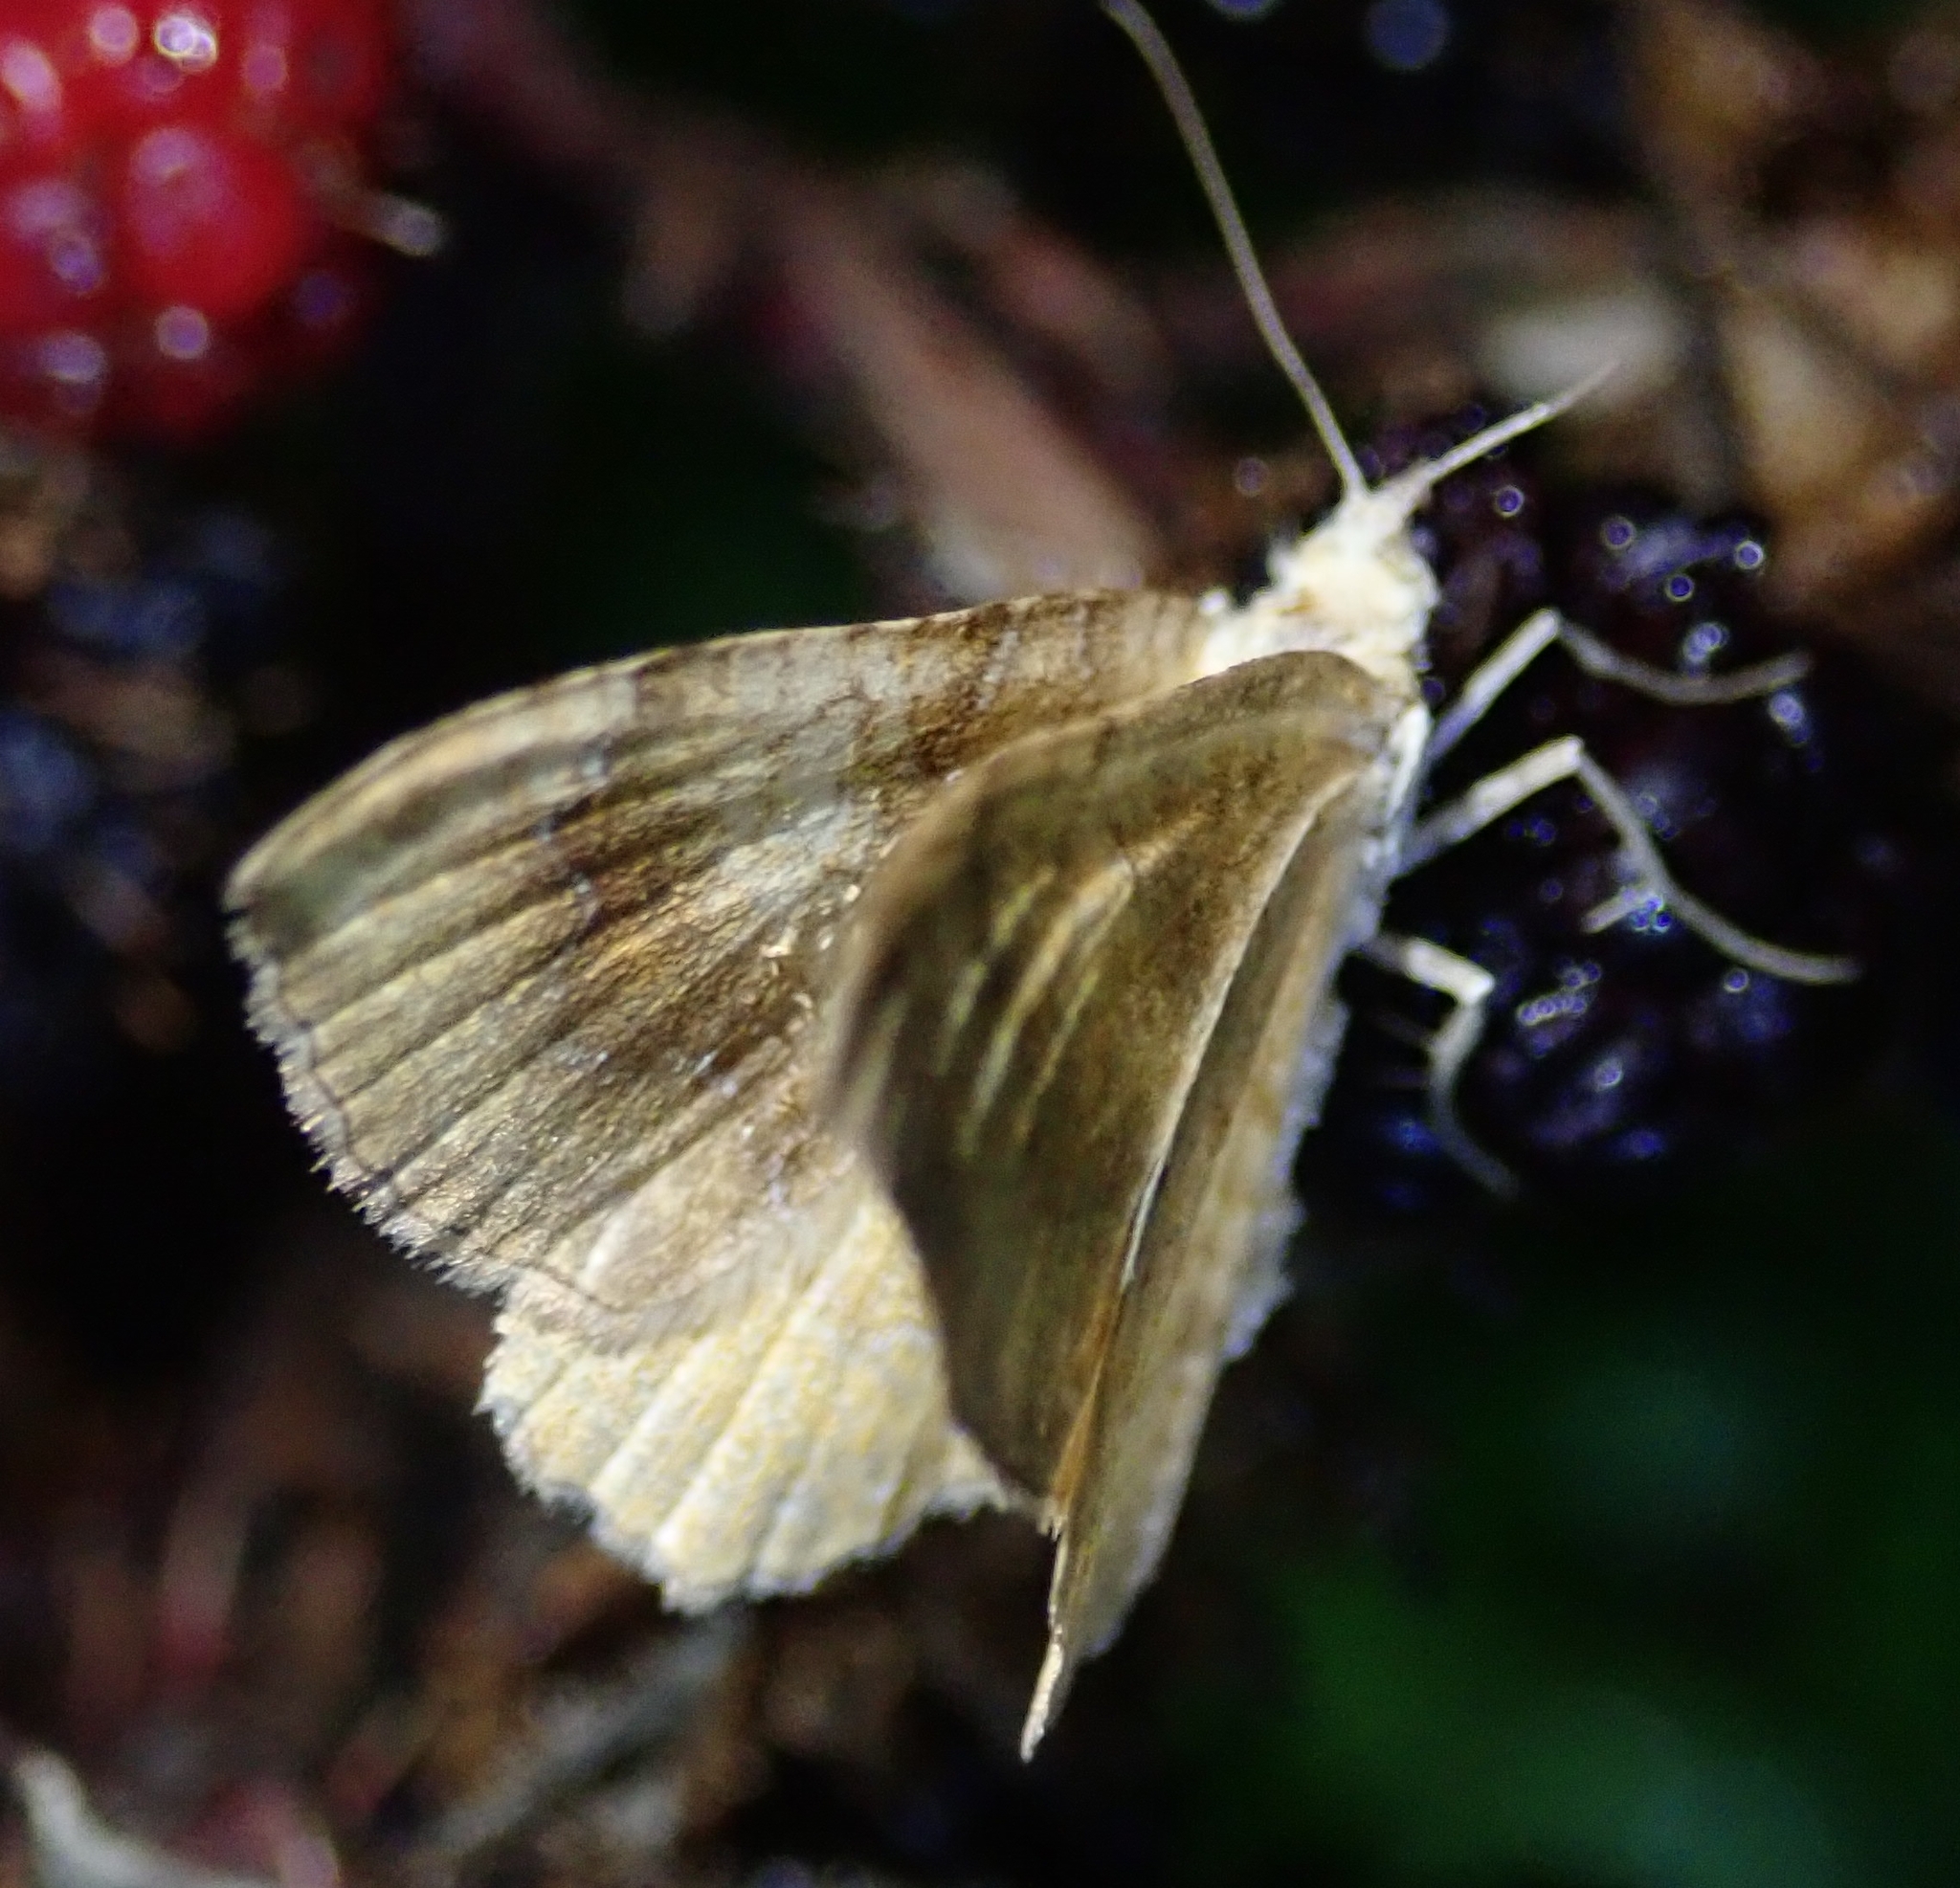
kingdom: Animalia
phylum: Arthropoda
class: Insecta
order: Lepidoptera
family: Geometridae
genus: Camptogramma
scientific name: Camptogramma bilineata
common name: Yellow shell
